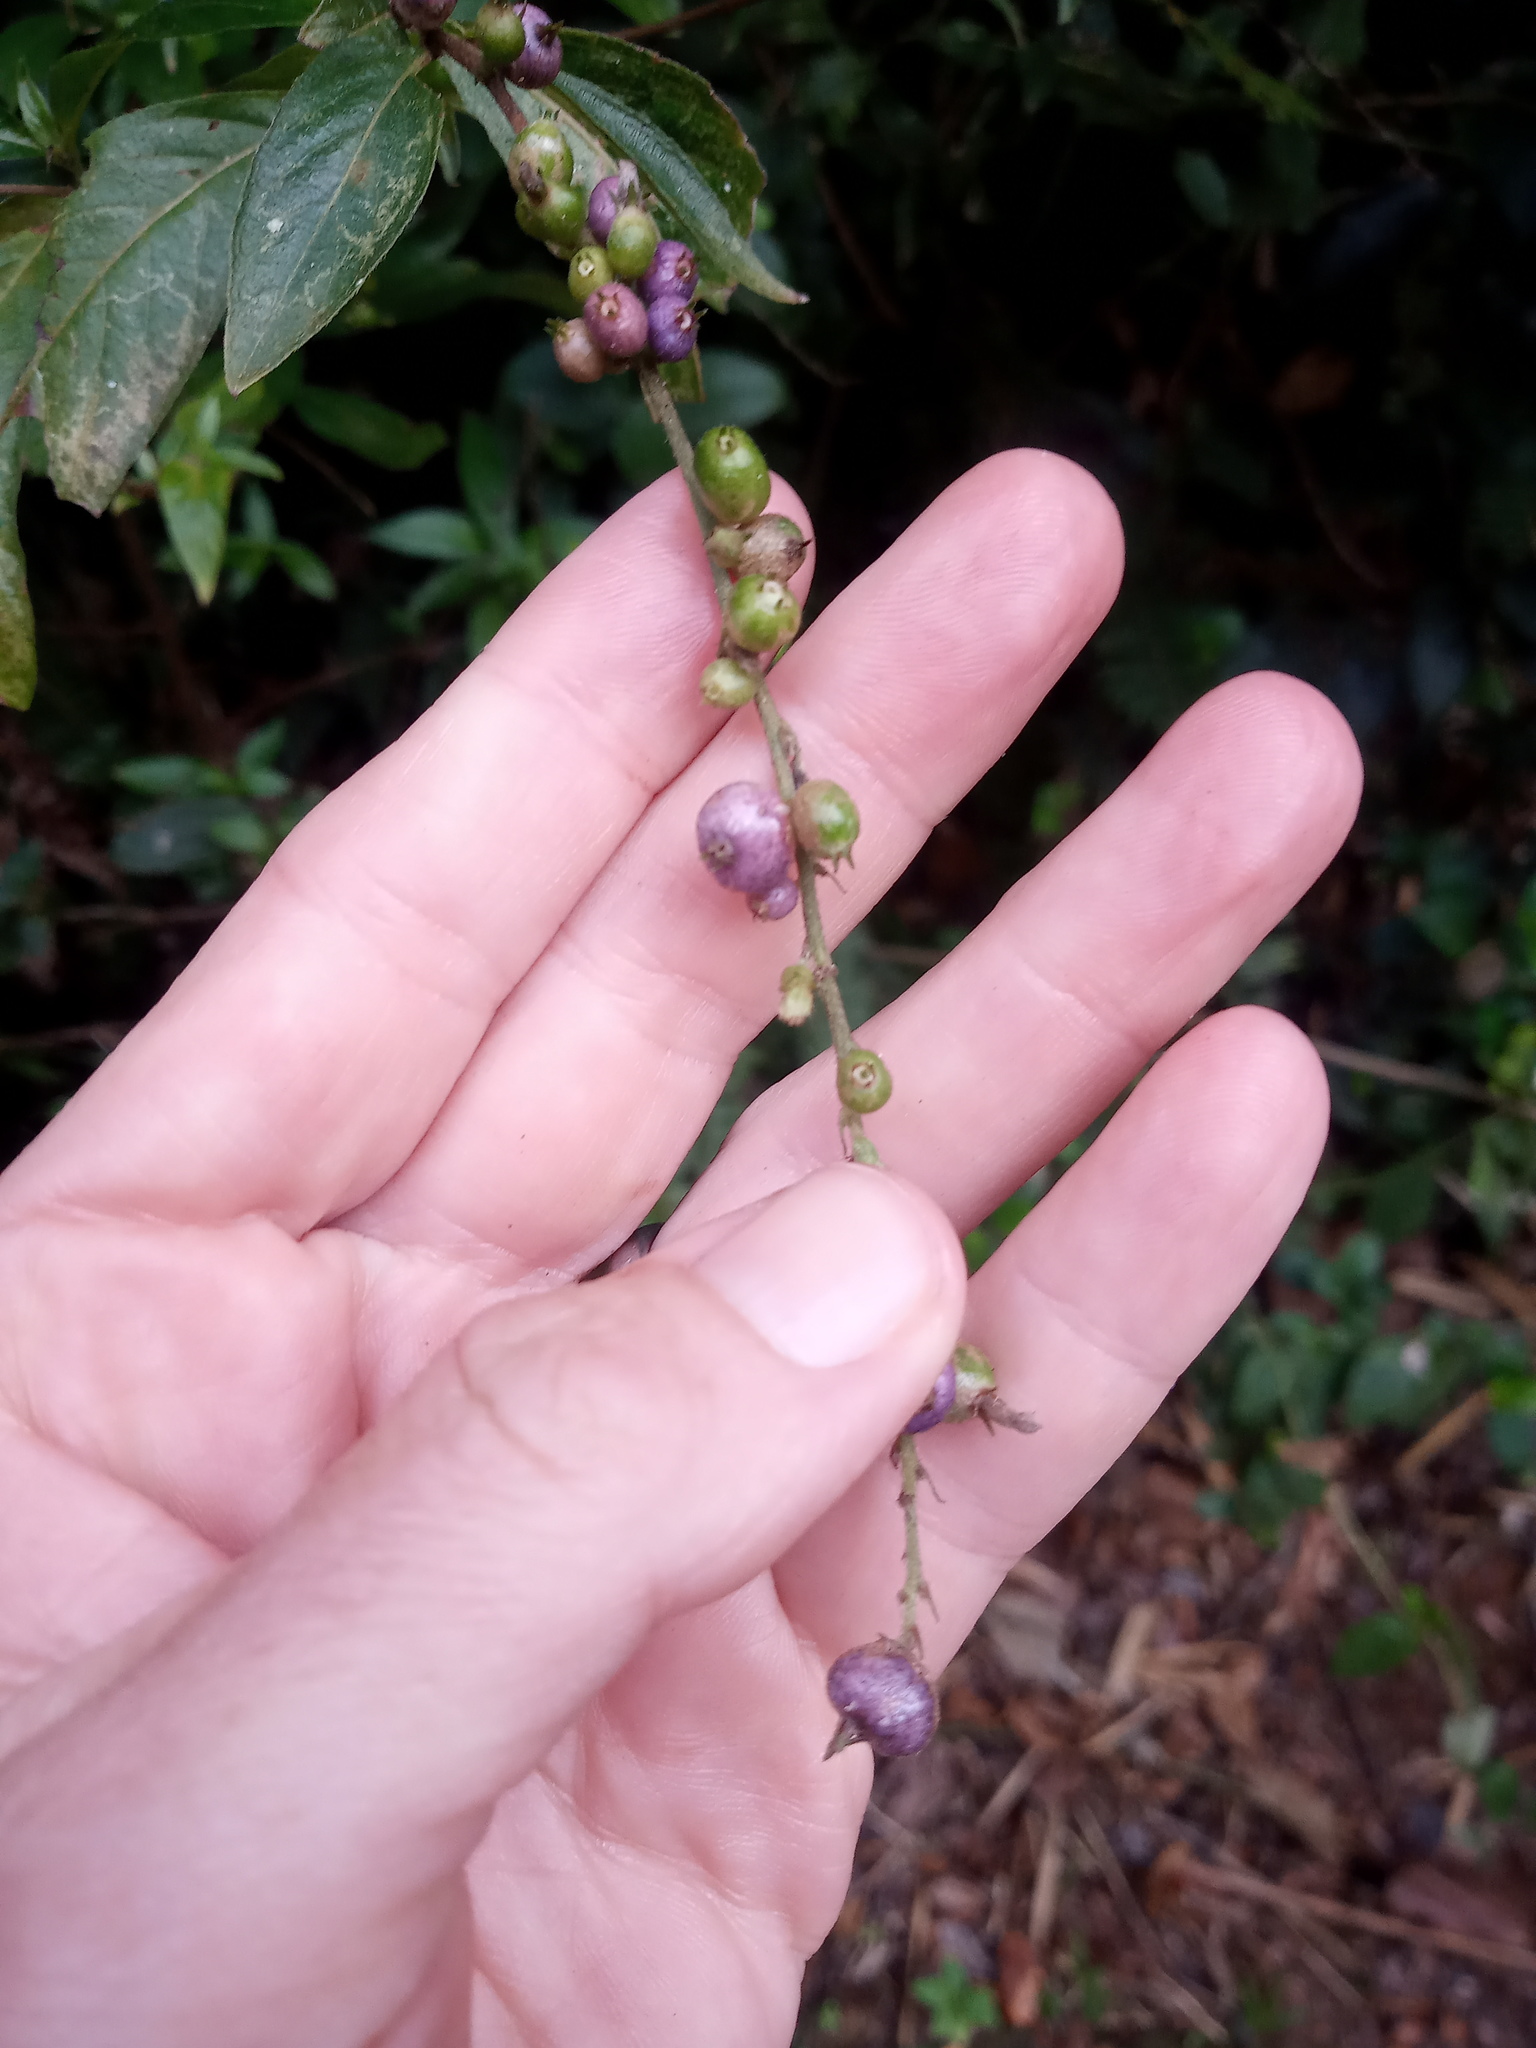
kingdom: Plantae
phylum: Tracheophyta
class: Magnoliopsida
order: Gentianales
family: Rubiaceae
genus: Gonzalagunia
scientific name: Gonzalagunia hirsuta
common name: Mata de mariposa
